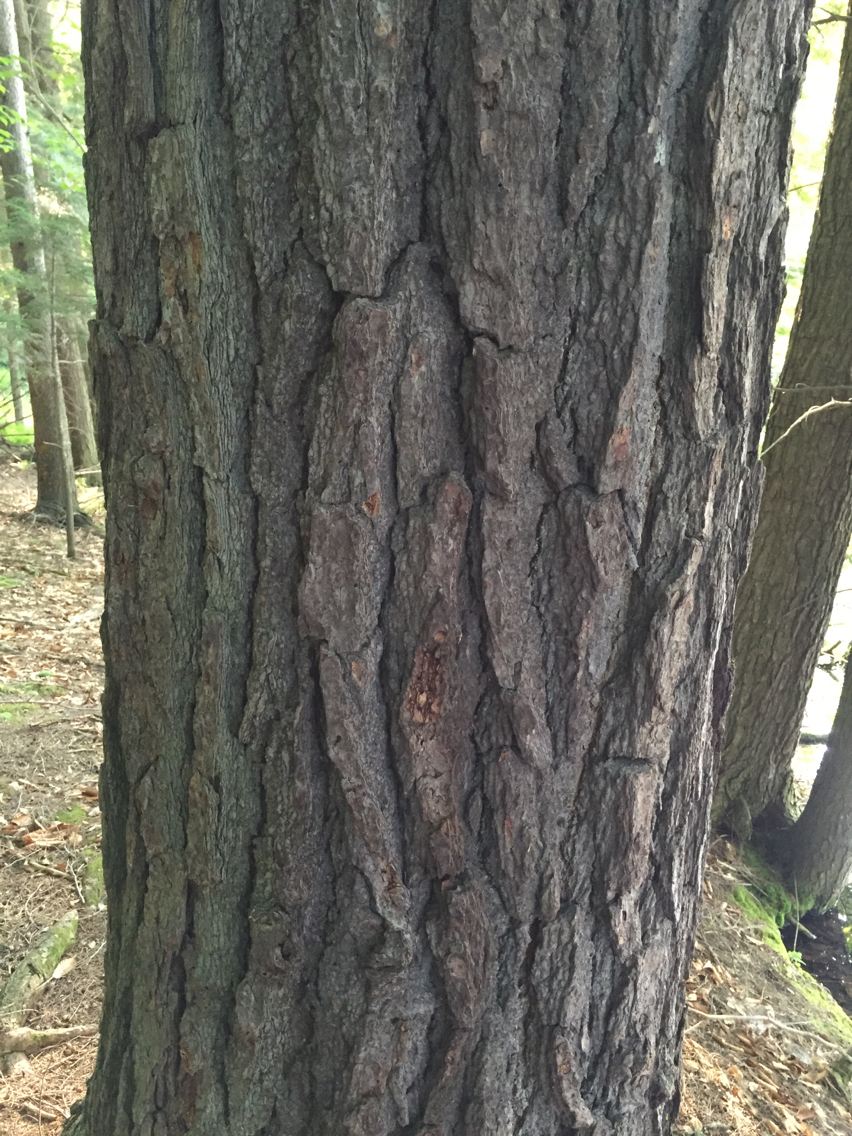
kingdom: Plantae
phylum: Tracheophyta
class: Pinopsida
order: Pinales
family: Pinaceae
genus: Tsuga
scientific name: Tsuga canadensis
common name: Eastern hemlock
